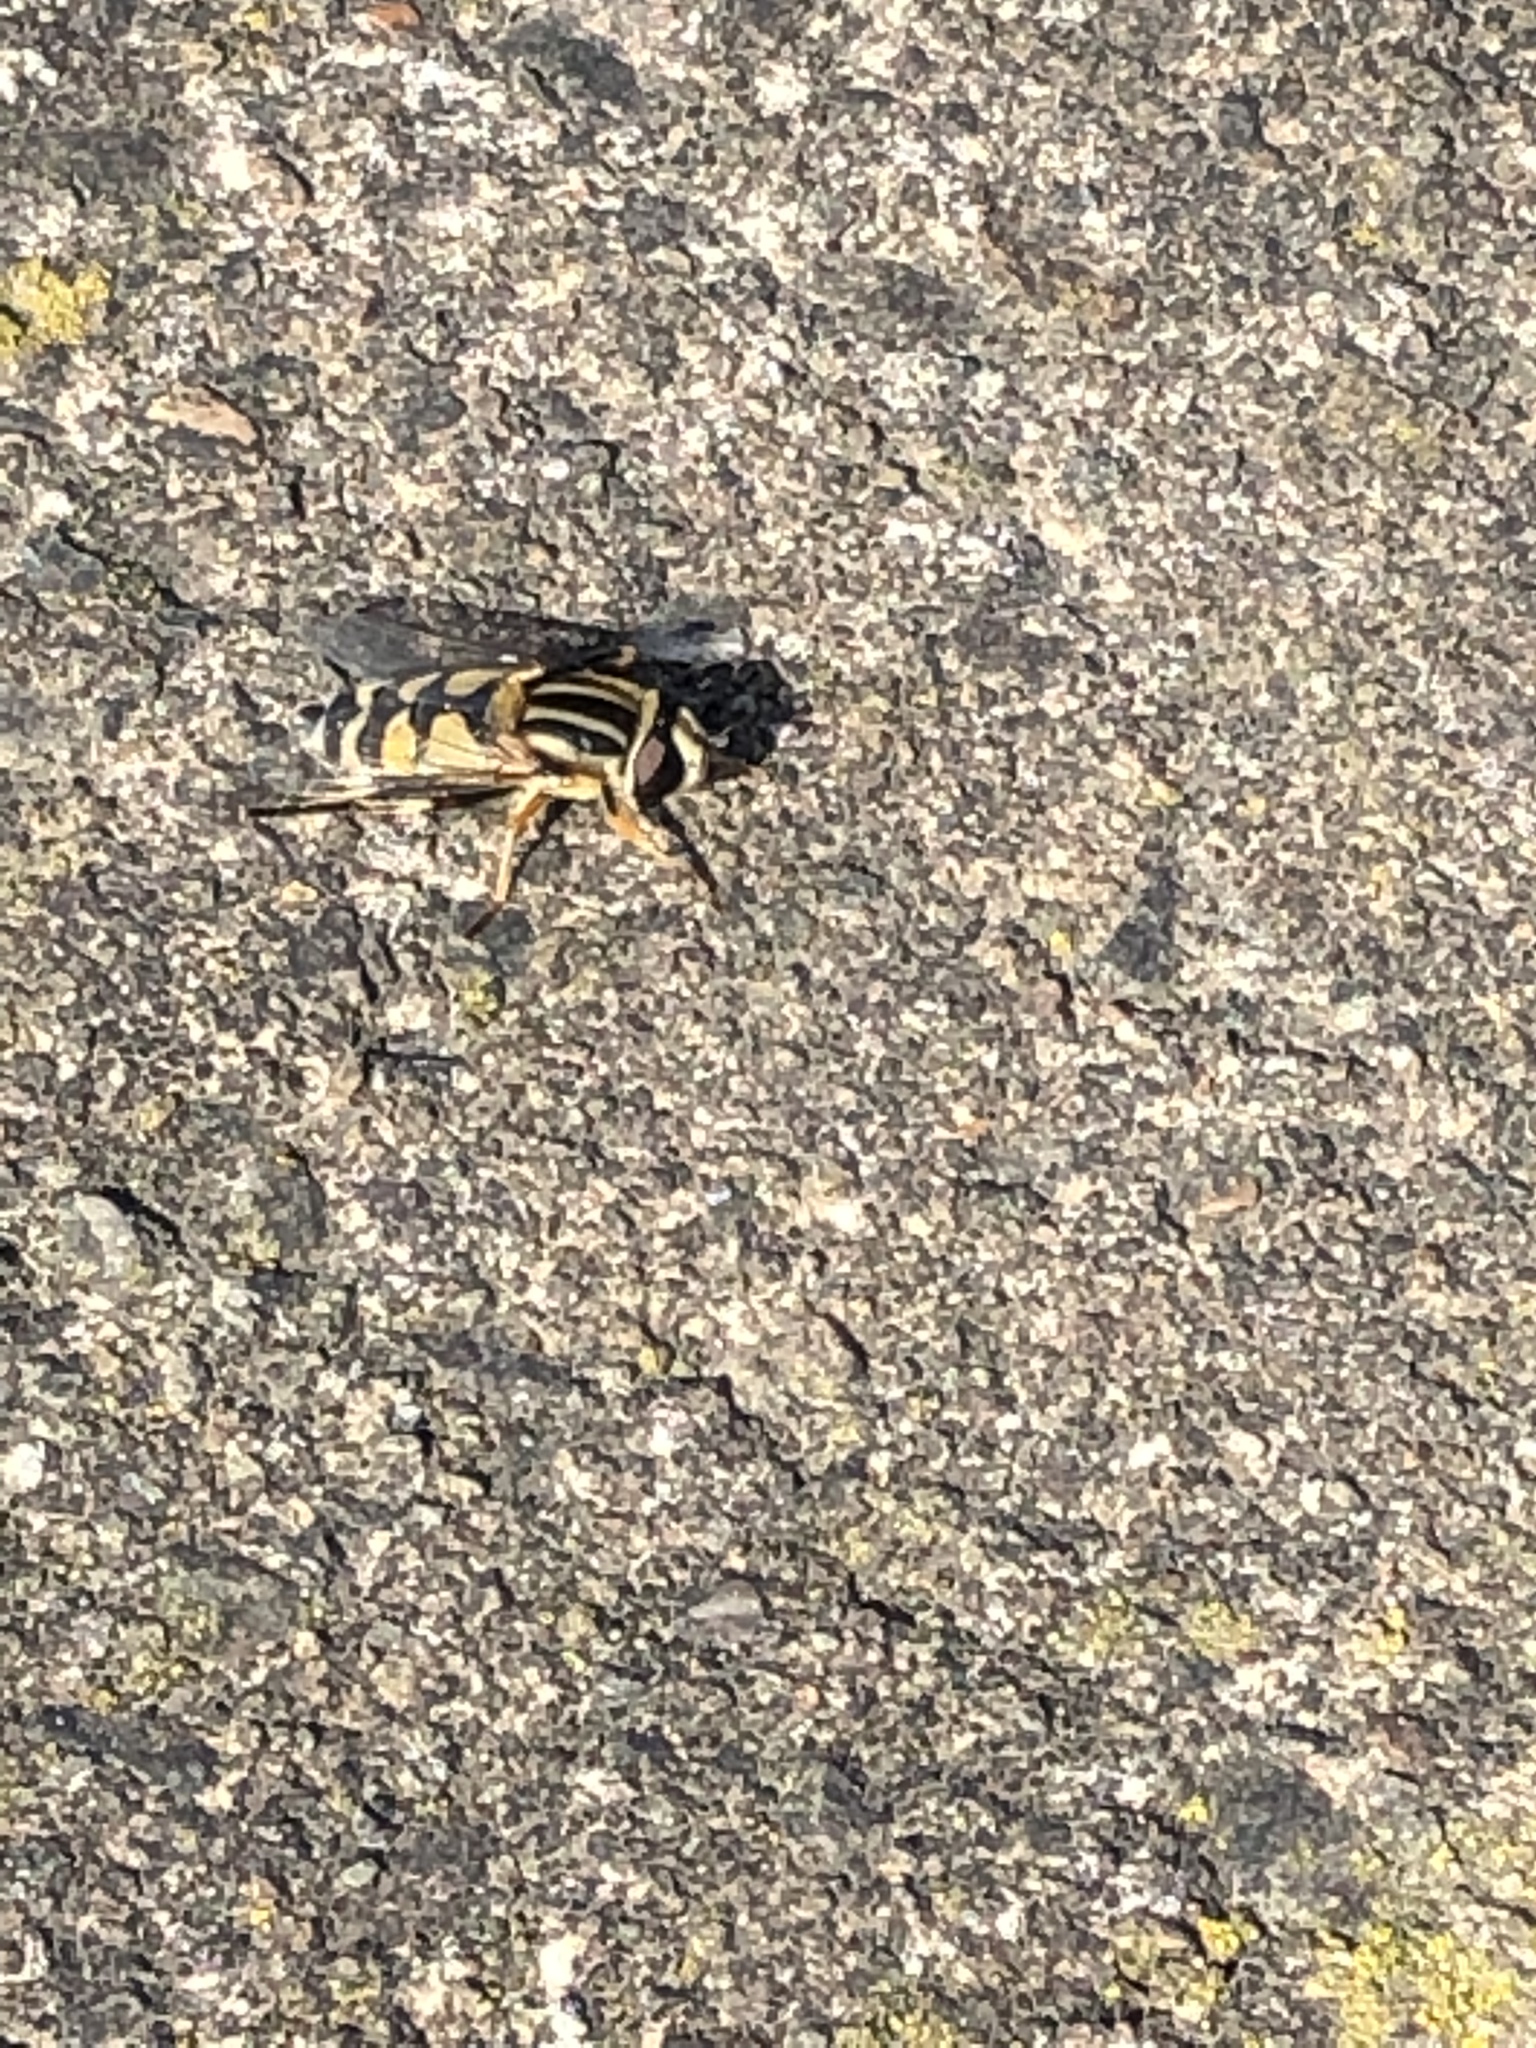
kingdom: Animalia
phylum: Arthropoda
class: Insecta
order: Diptera
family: Syrphidae
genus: Helophilus
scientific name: Helophilus trivittatus
